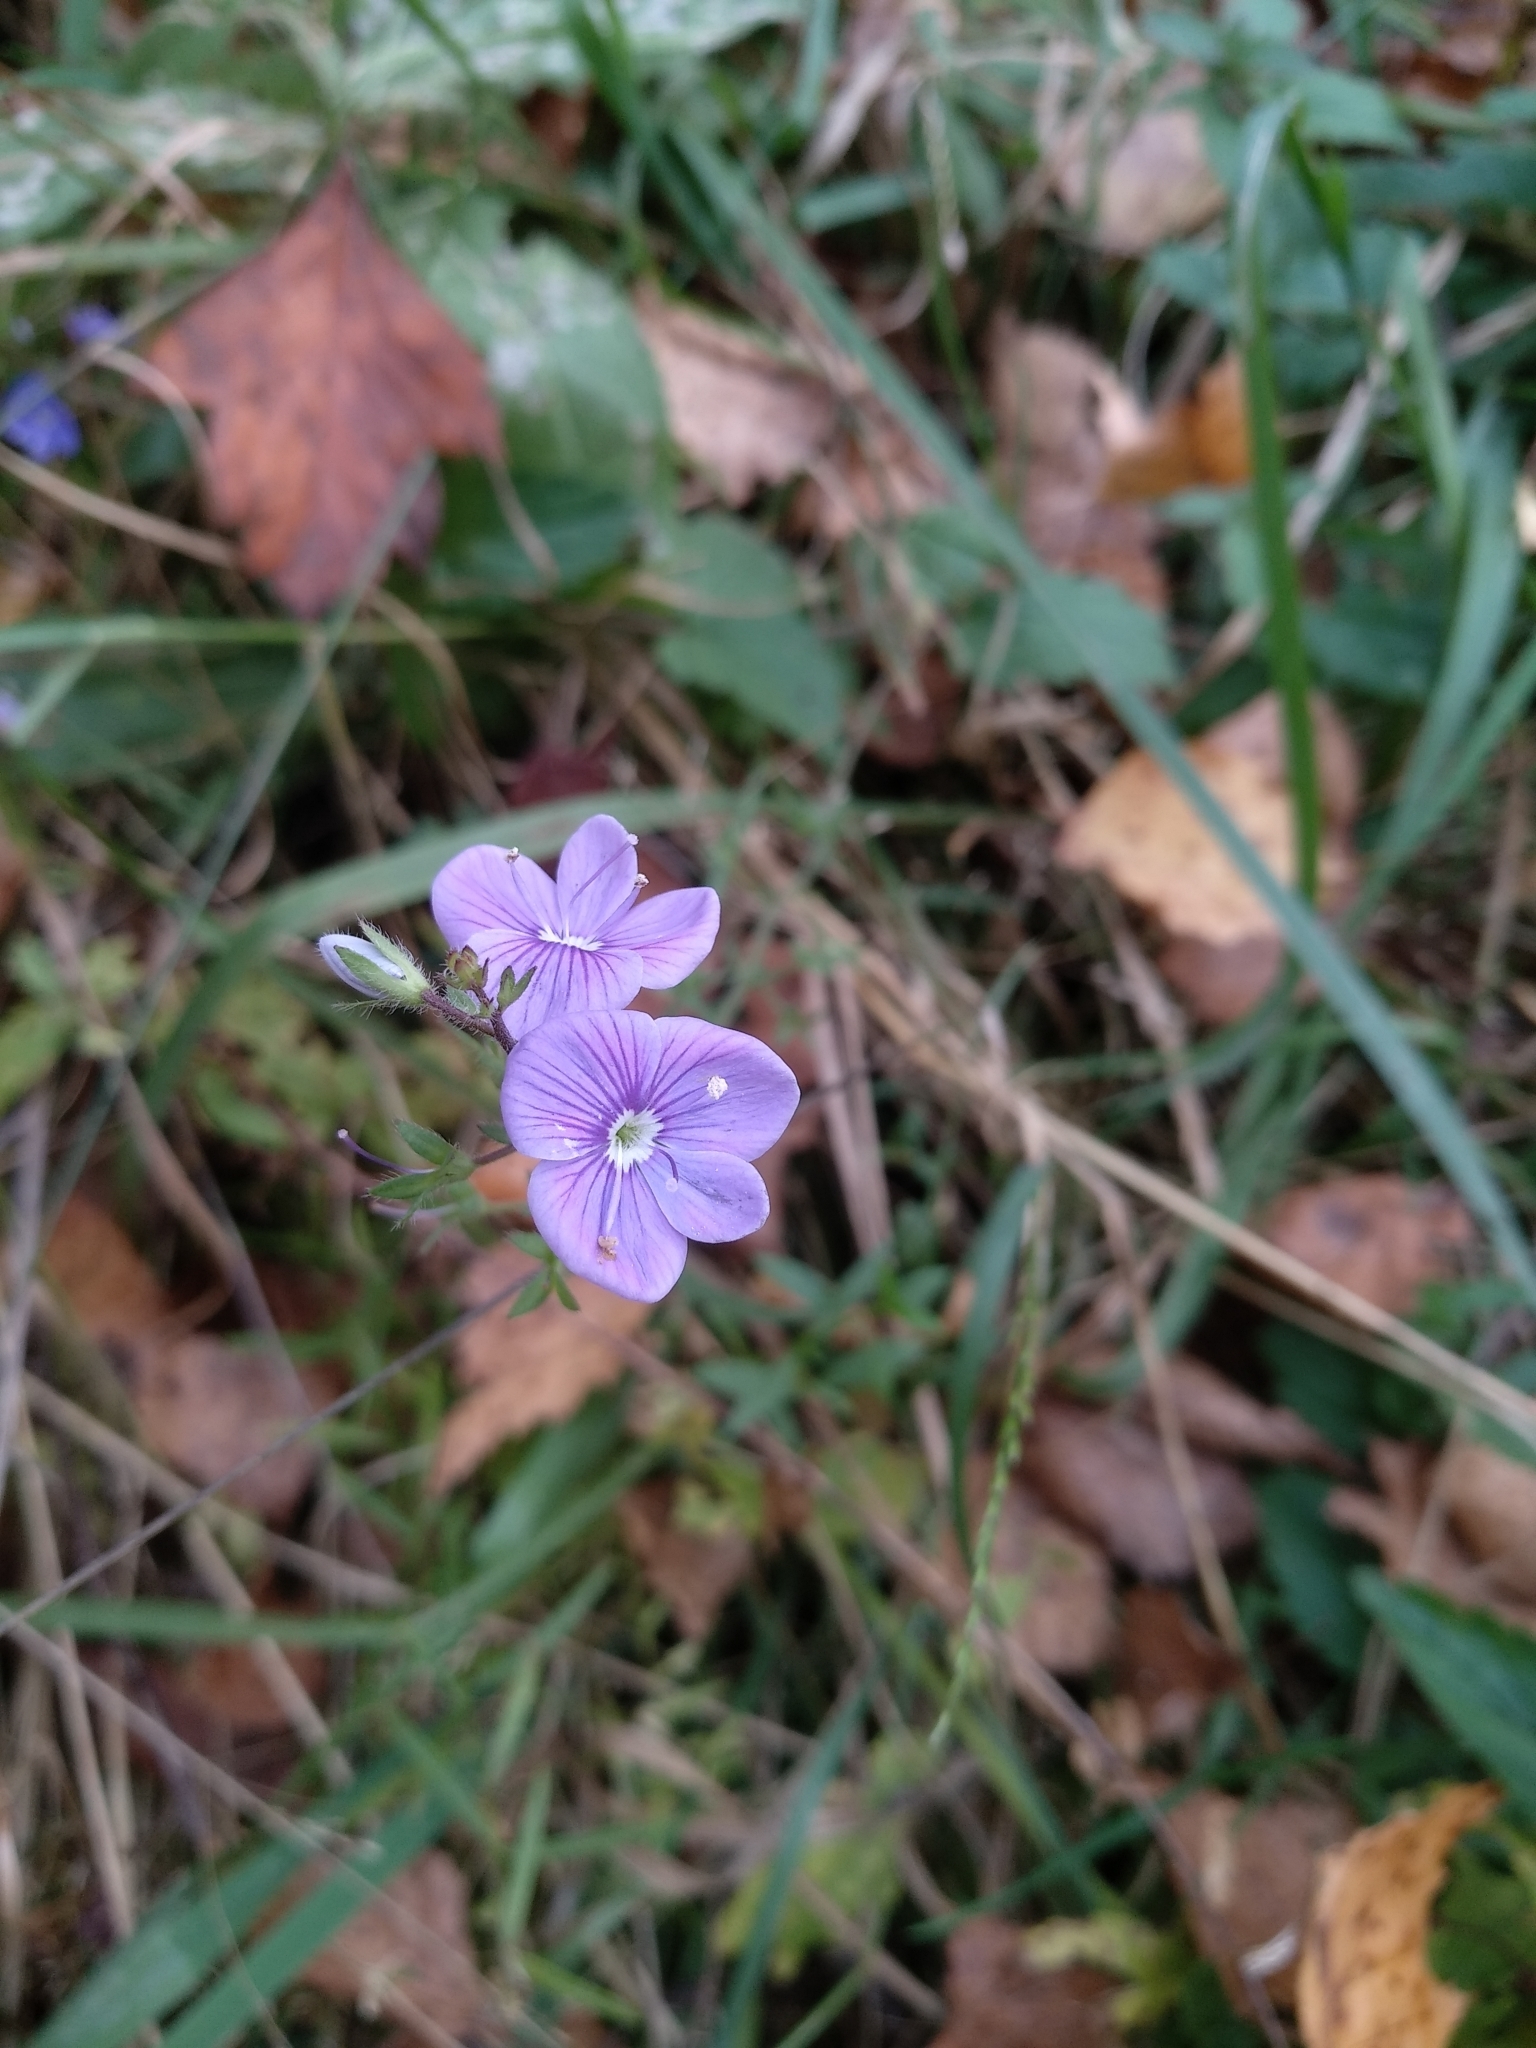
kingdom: Plantae
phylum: Tracheophyta
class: Magnoliopsida
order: Lamiales
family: Plantaginaceae
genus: Veronica
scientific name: Veronica chamaedrys
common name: Germander speedwell
